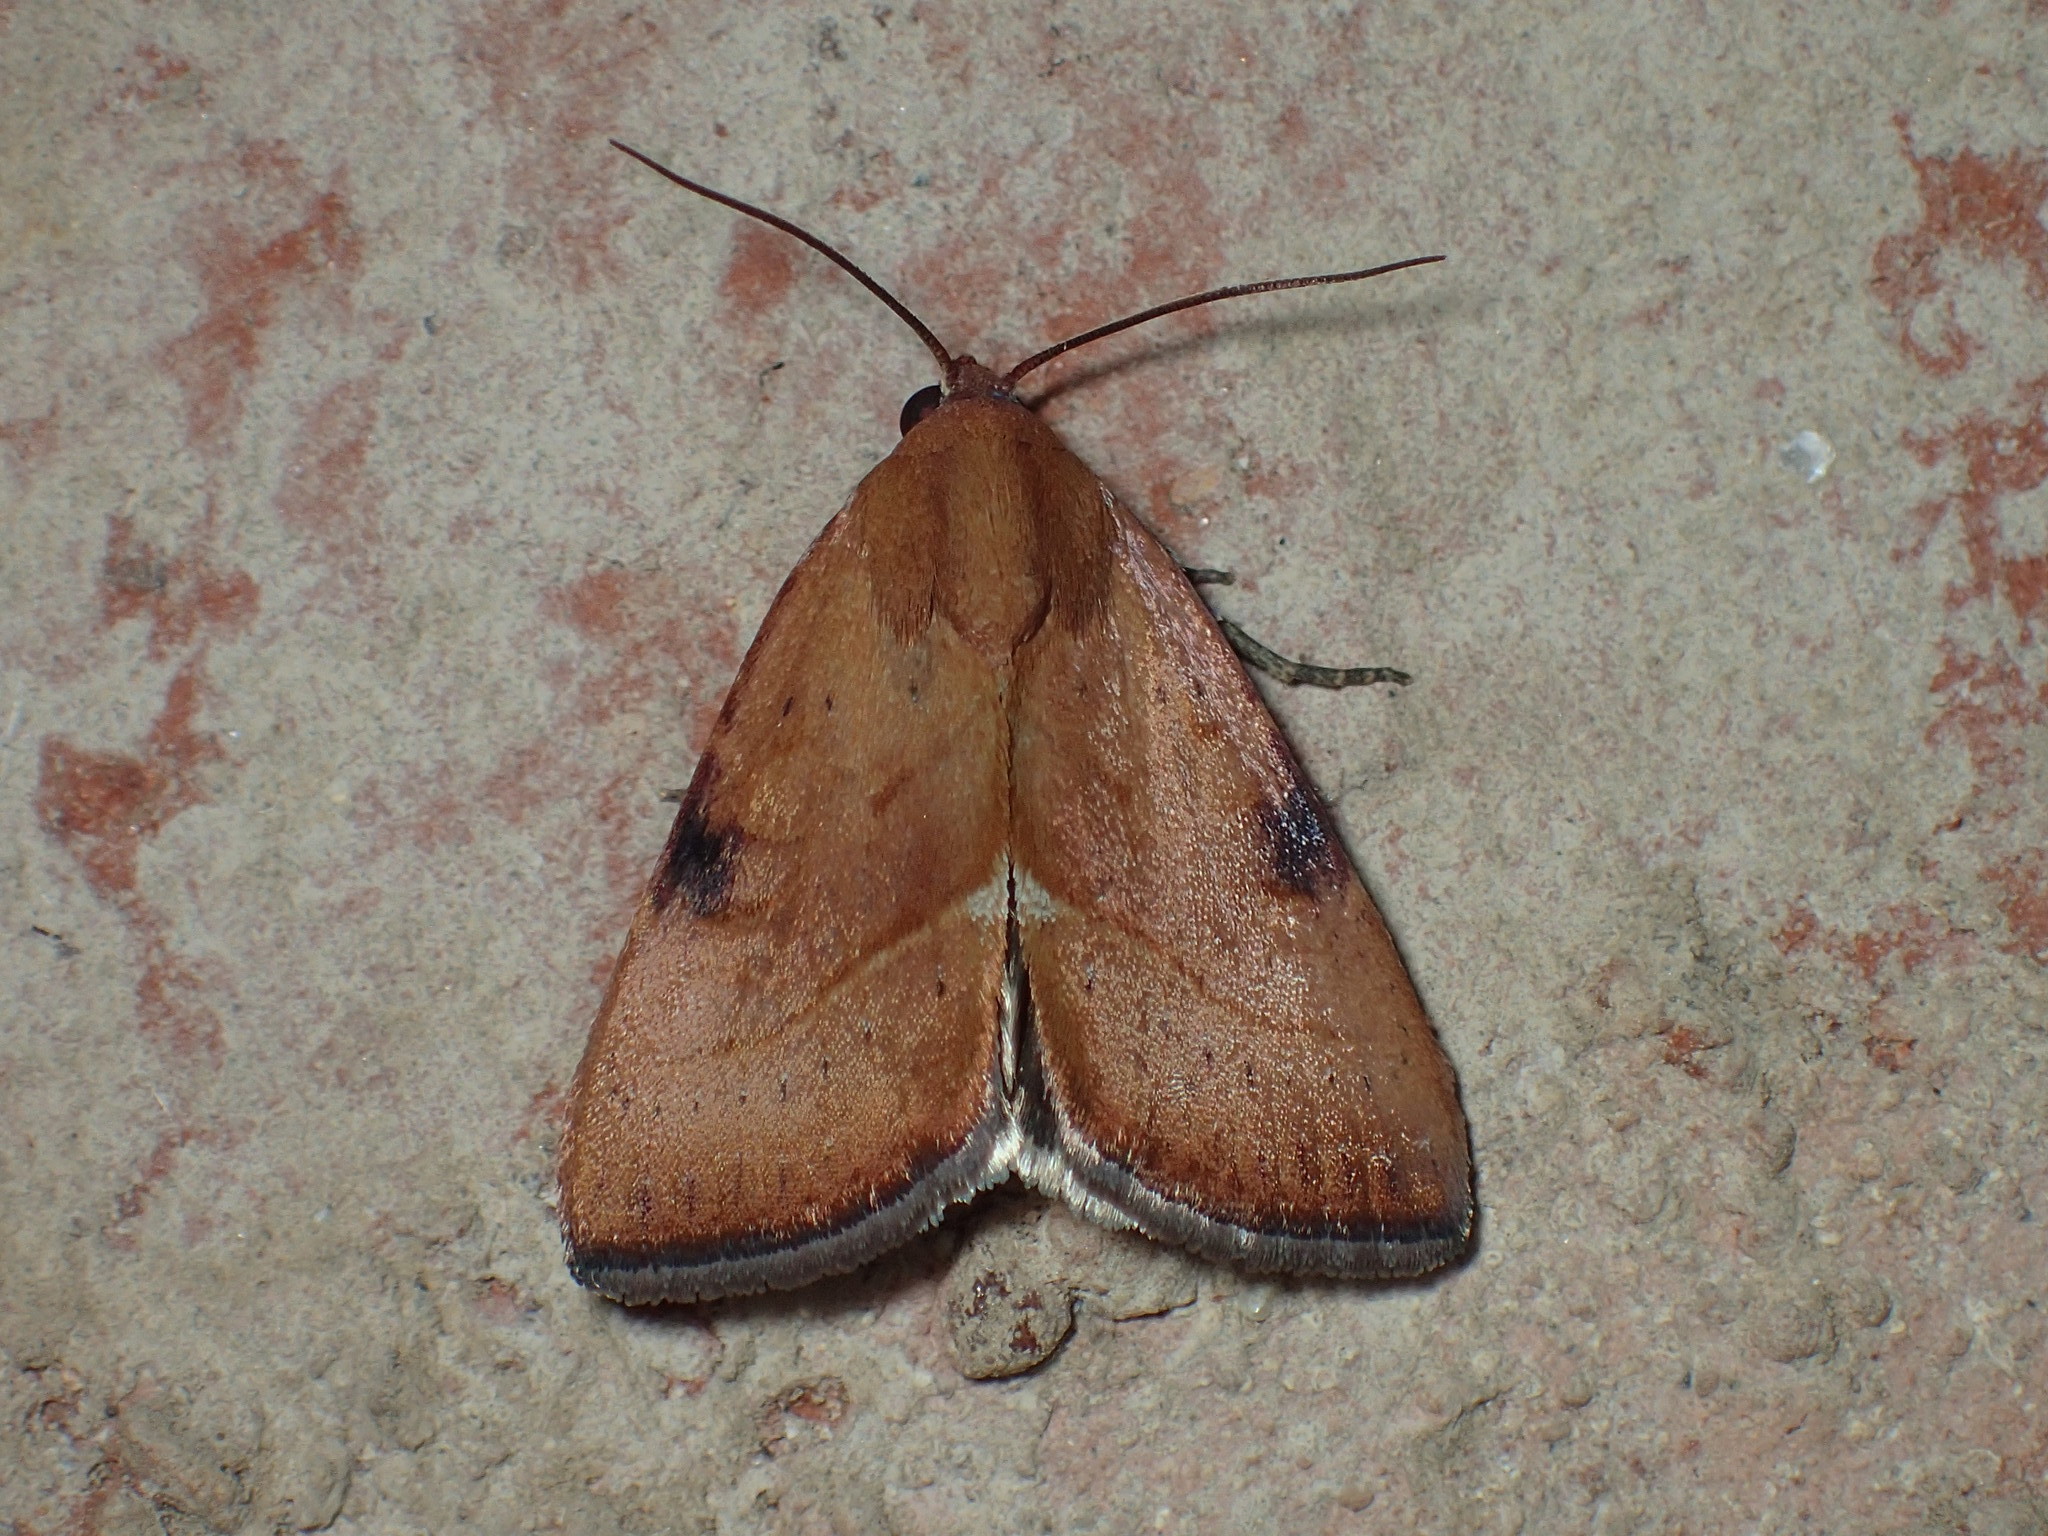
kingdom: Animalia
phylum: Arthropoda
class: Insecta
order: Lepidoptera
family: Noctuidae
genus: Galgula
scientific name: Galgula partita
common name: Wedgeling
